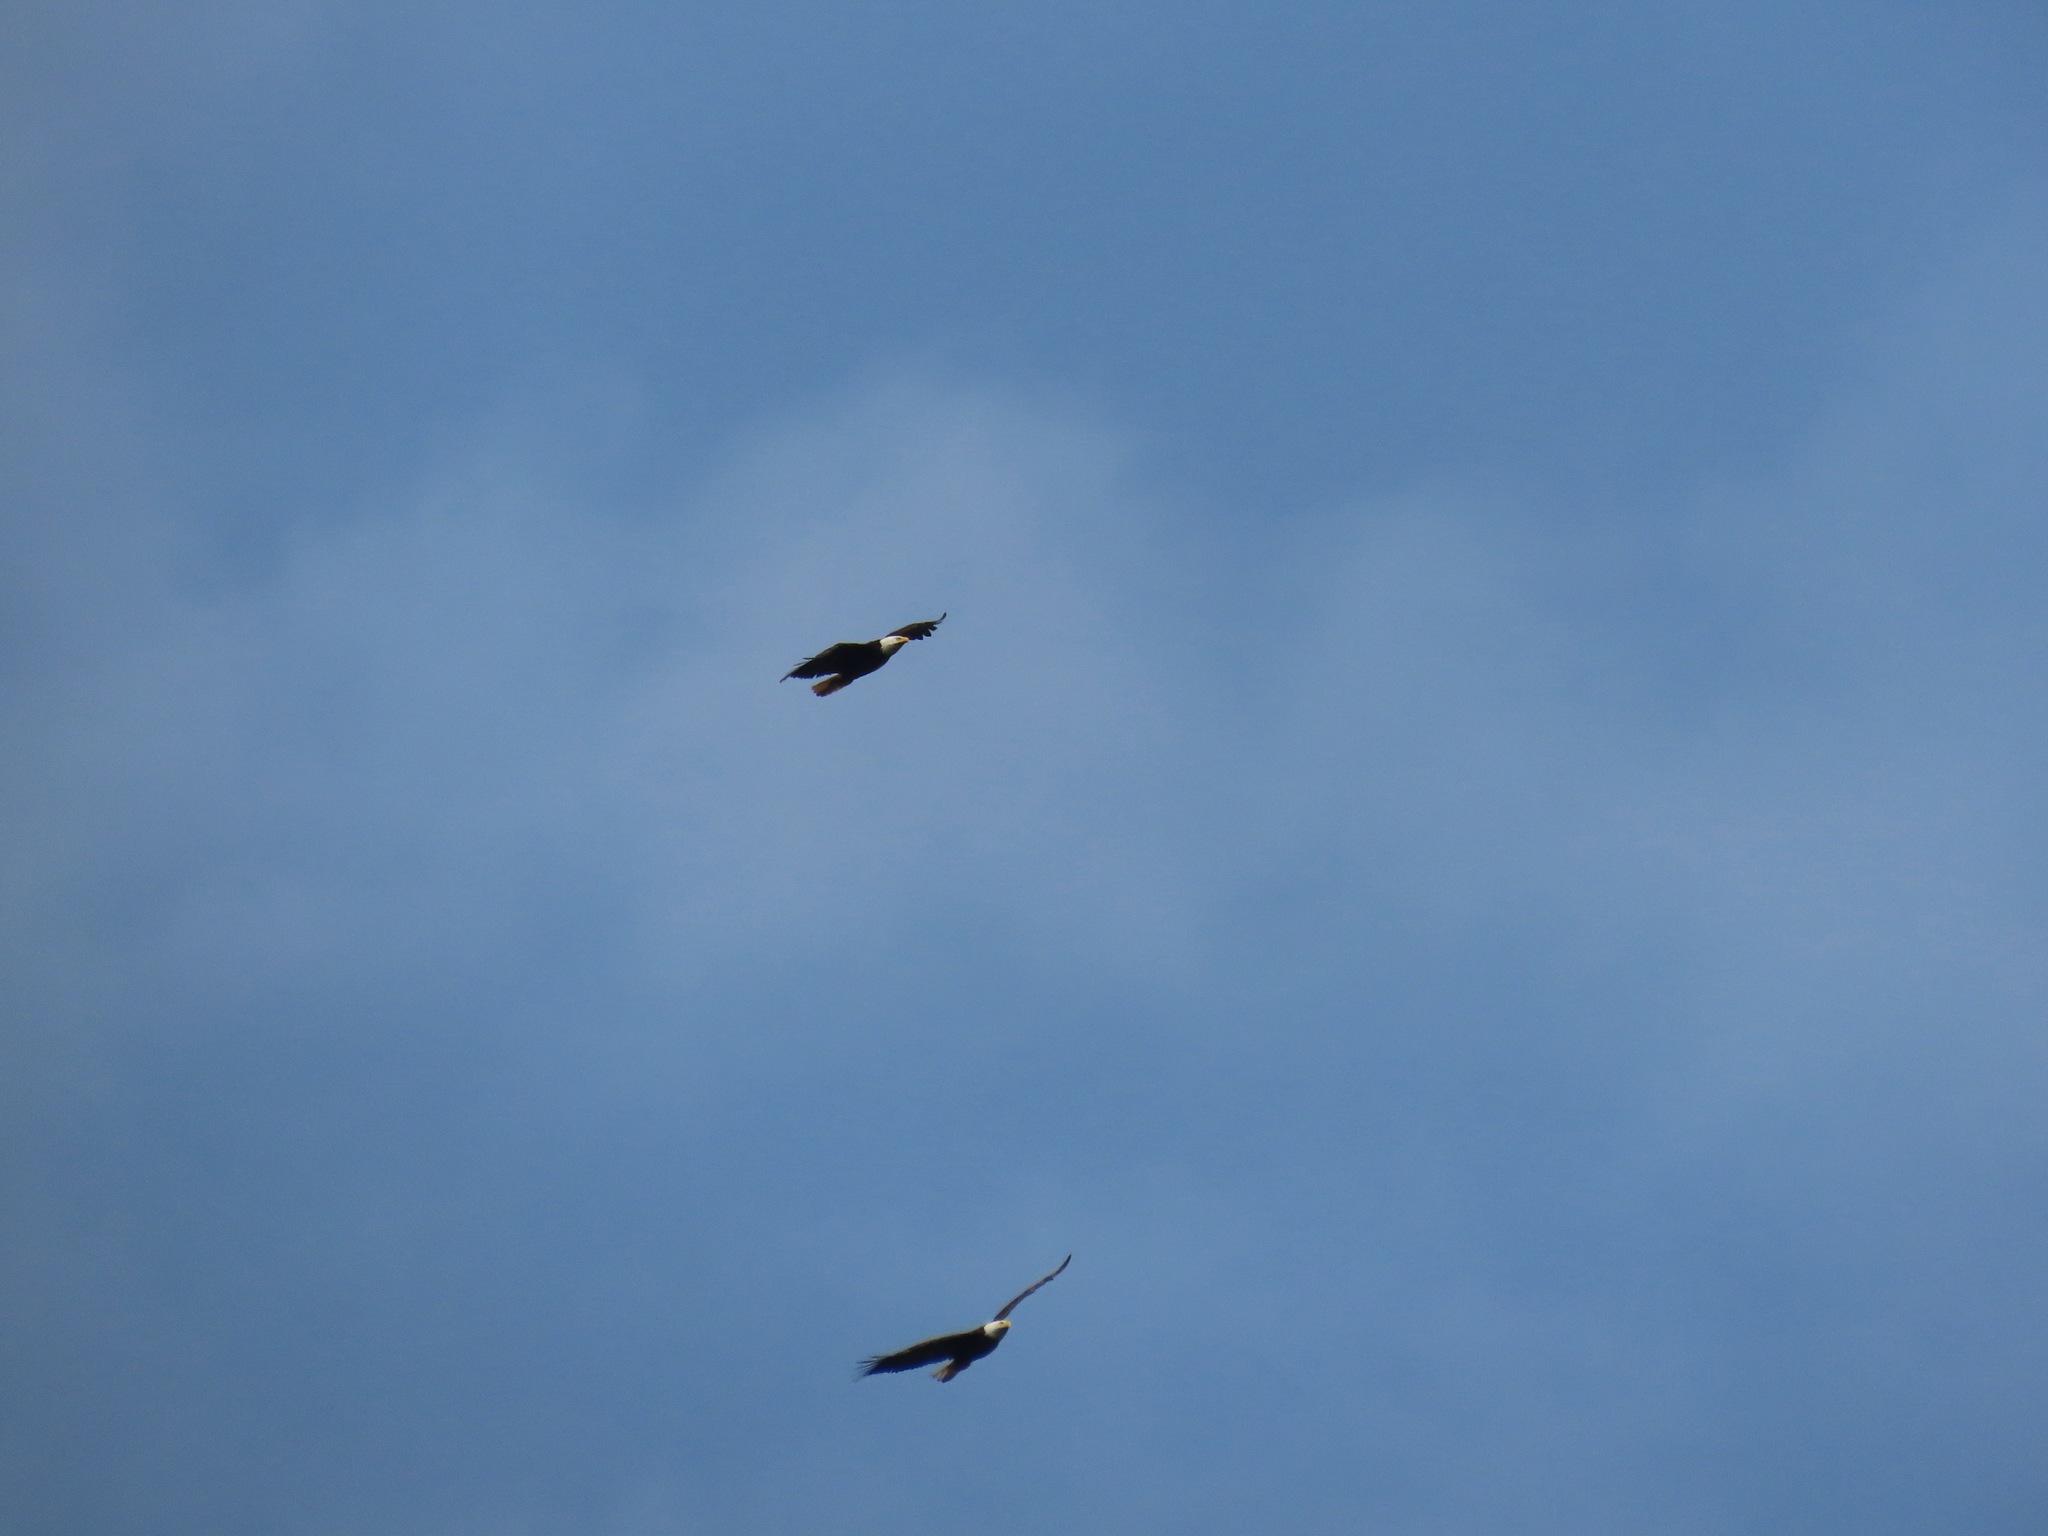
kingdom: Animalia
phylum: Chordata
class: Aves
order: Accipitriformes
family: Accipitridae
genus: Haliaeetus
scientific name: Haliaeetus leucocephalus
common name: Bald eagle
